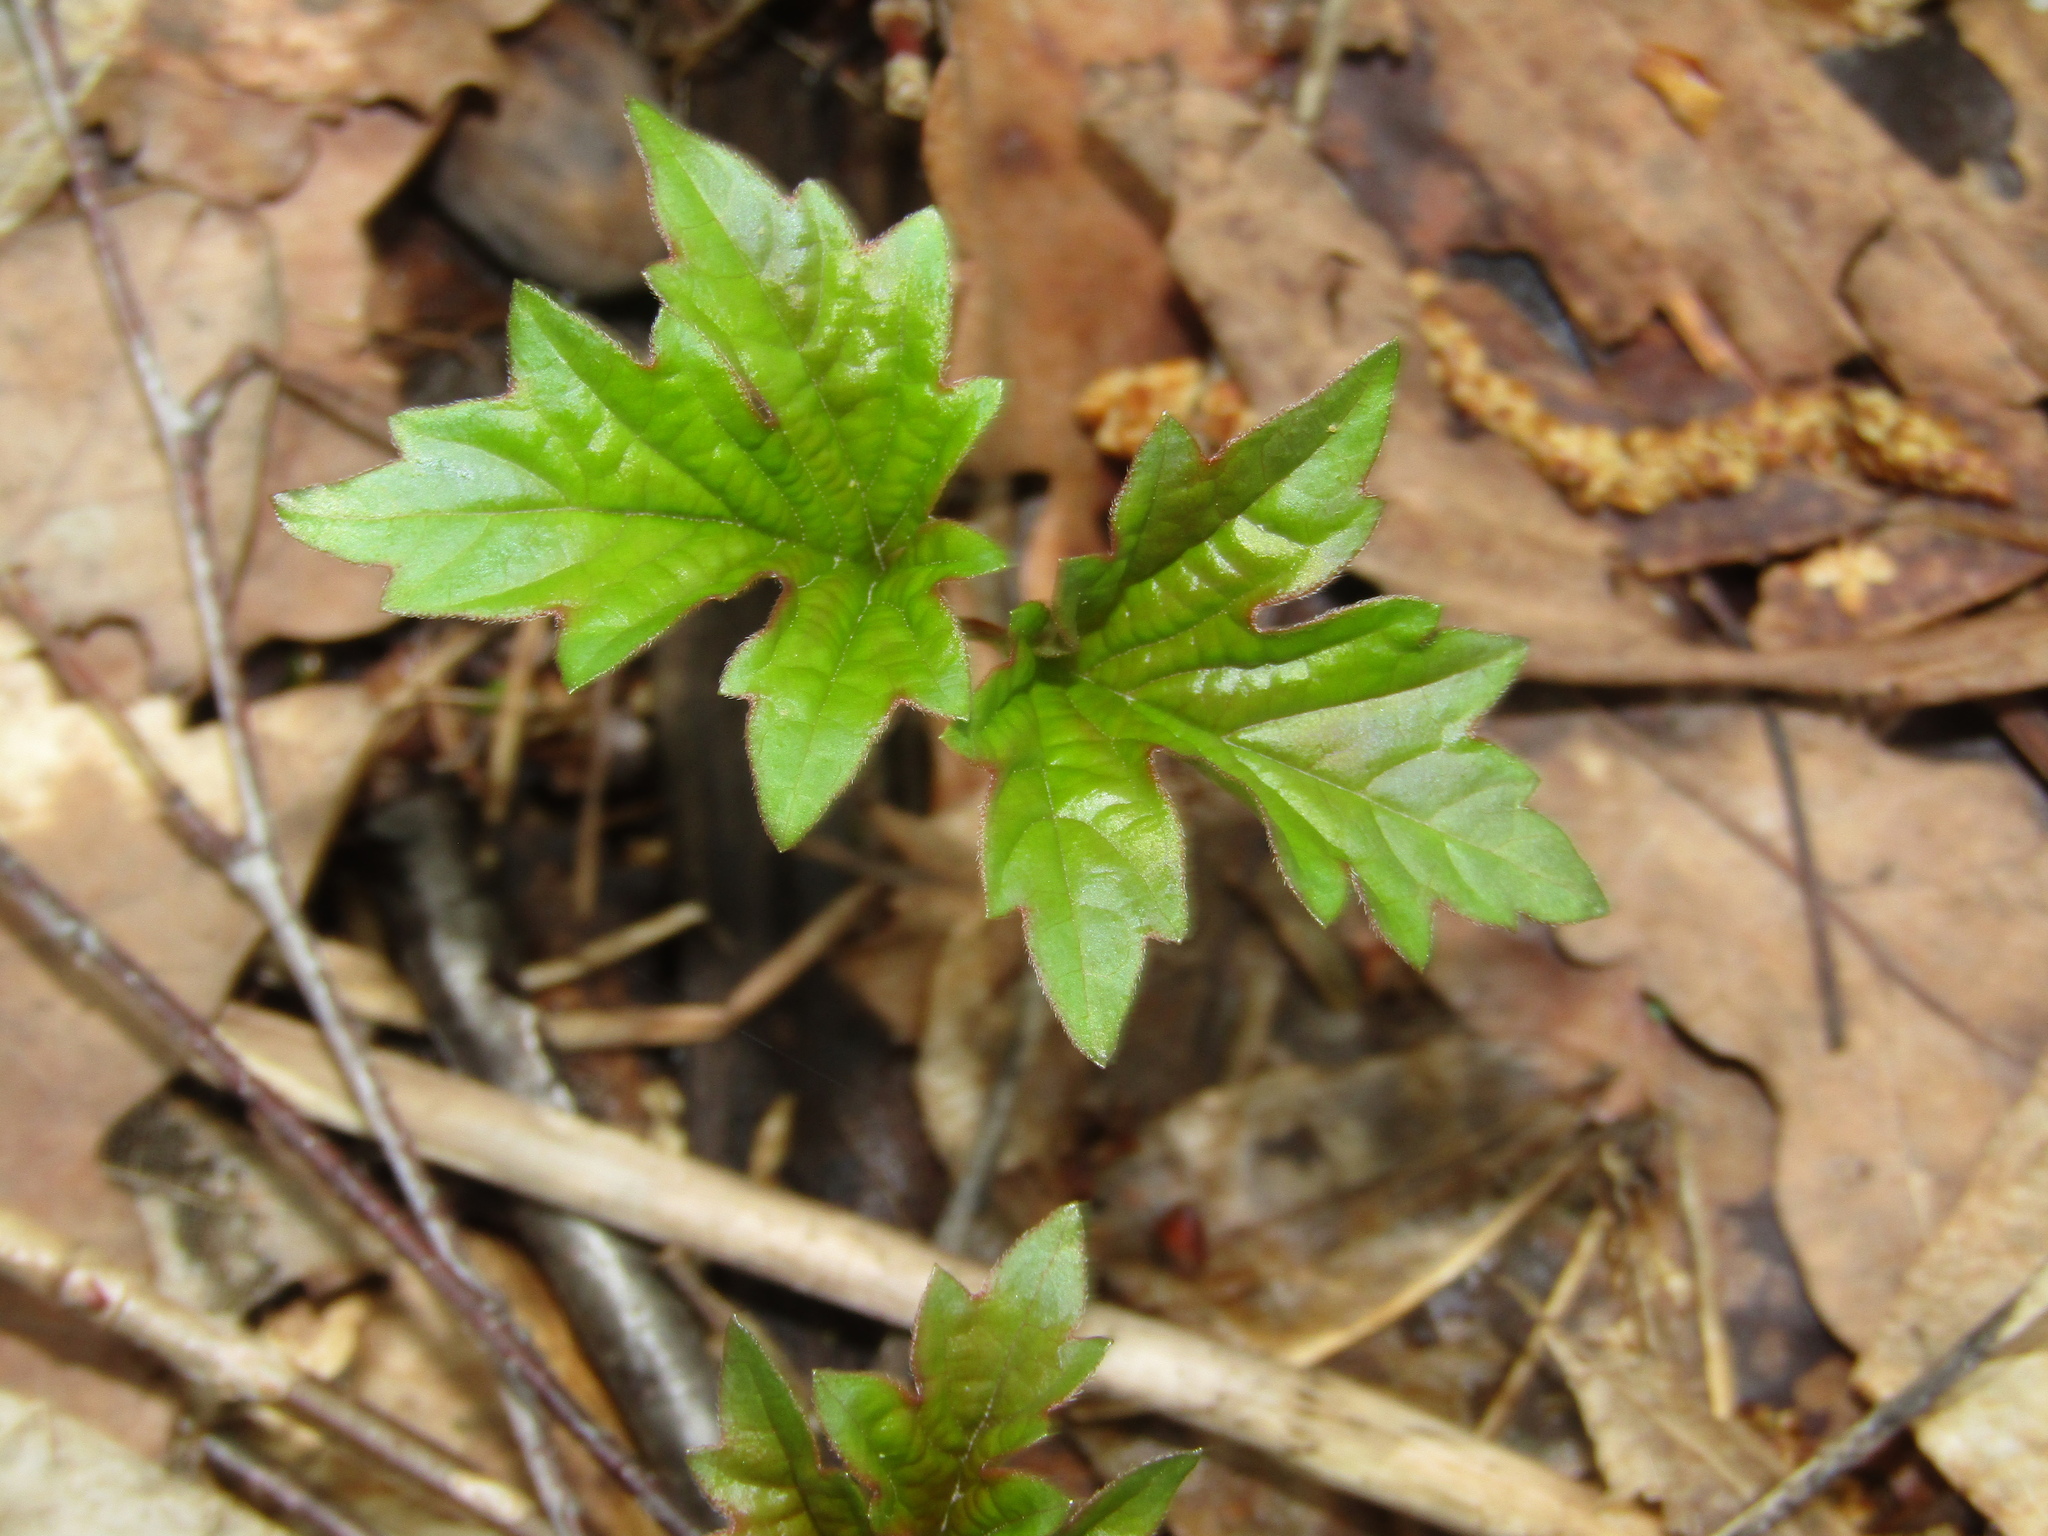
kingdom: Plantae
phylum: Tracheophyta
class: Magnoliopsida
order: Dipsacales
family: Viburnaceae
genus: Viburnum
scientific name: Viburnum opulus
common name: Guelder-rose
